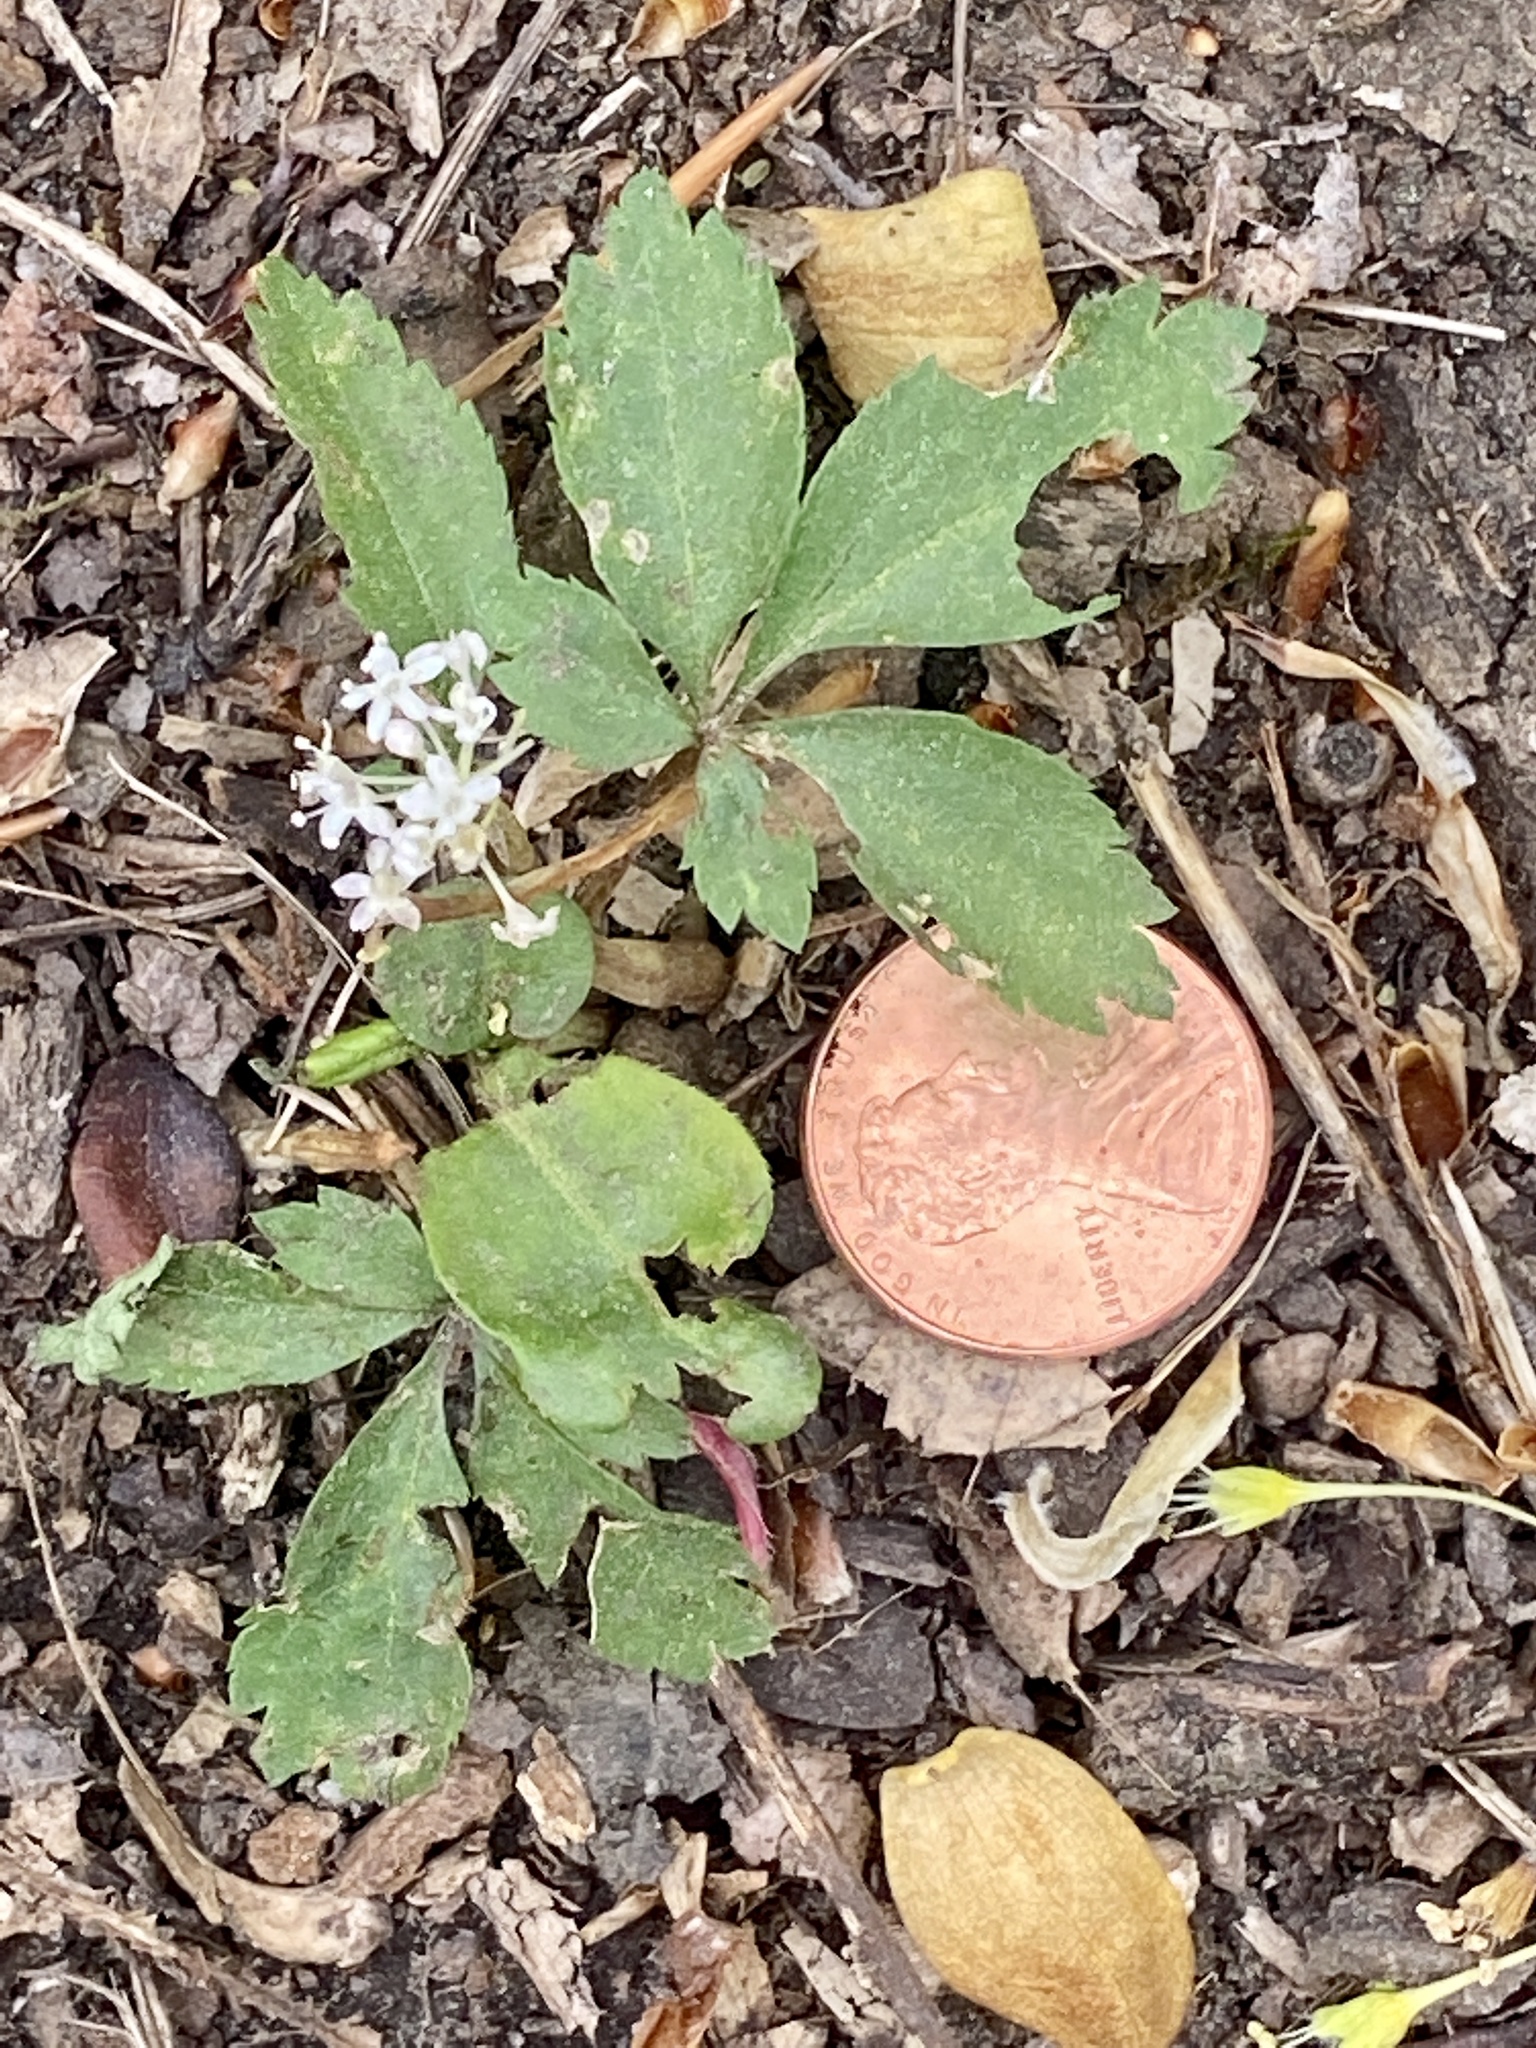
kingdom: Plantae
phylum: Tracheophyta
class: Magnoliopsida
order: Apiales
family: Araliaceae
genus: Panax
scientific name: Panax trifolius
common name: Dwarf ginseng
